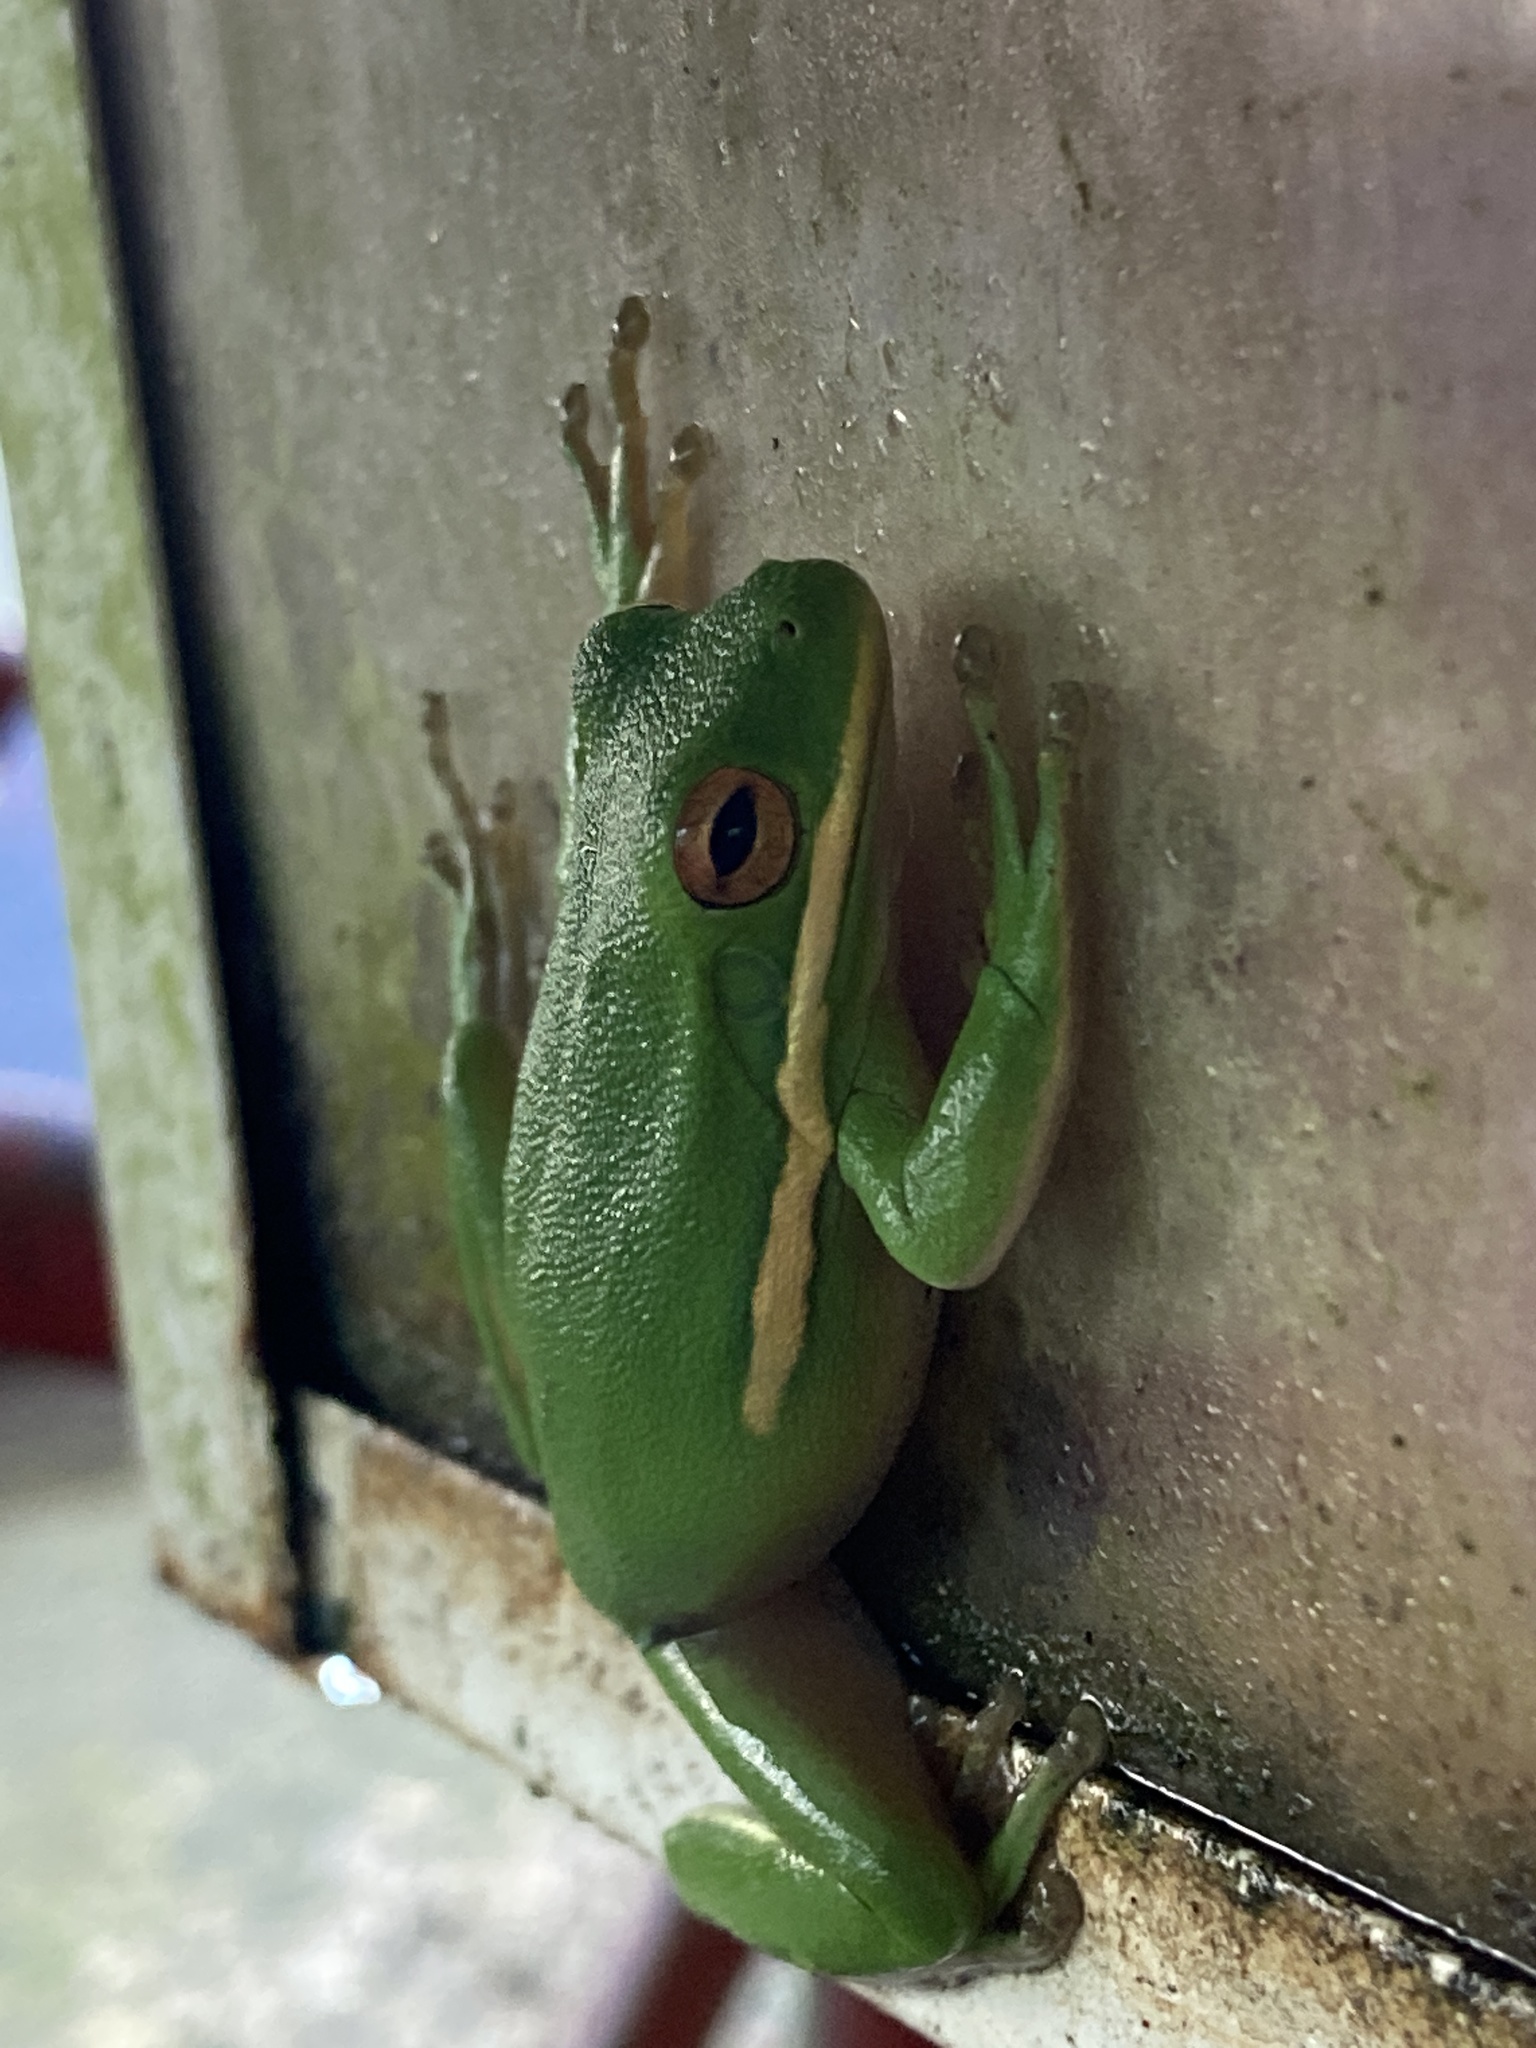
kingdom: Animalia
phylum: Chordata
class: Amphibia
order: Anura
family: Hylidae
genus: Dryophytes
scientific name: Dryophytes cinereus
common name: Green treefrog
